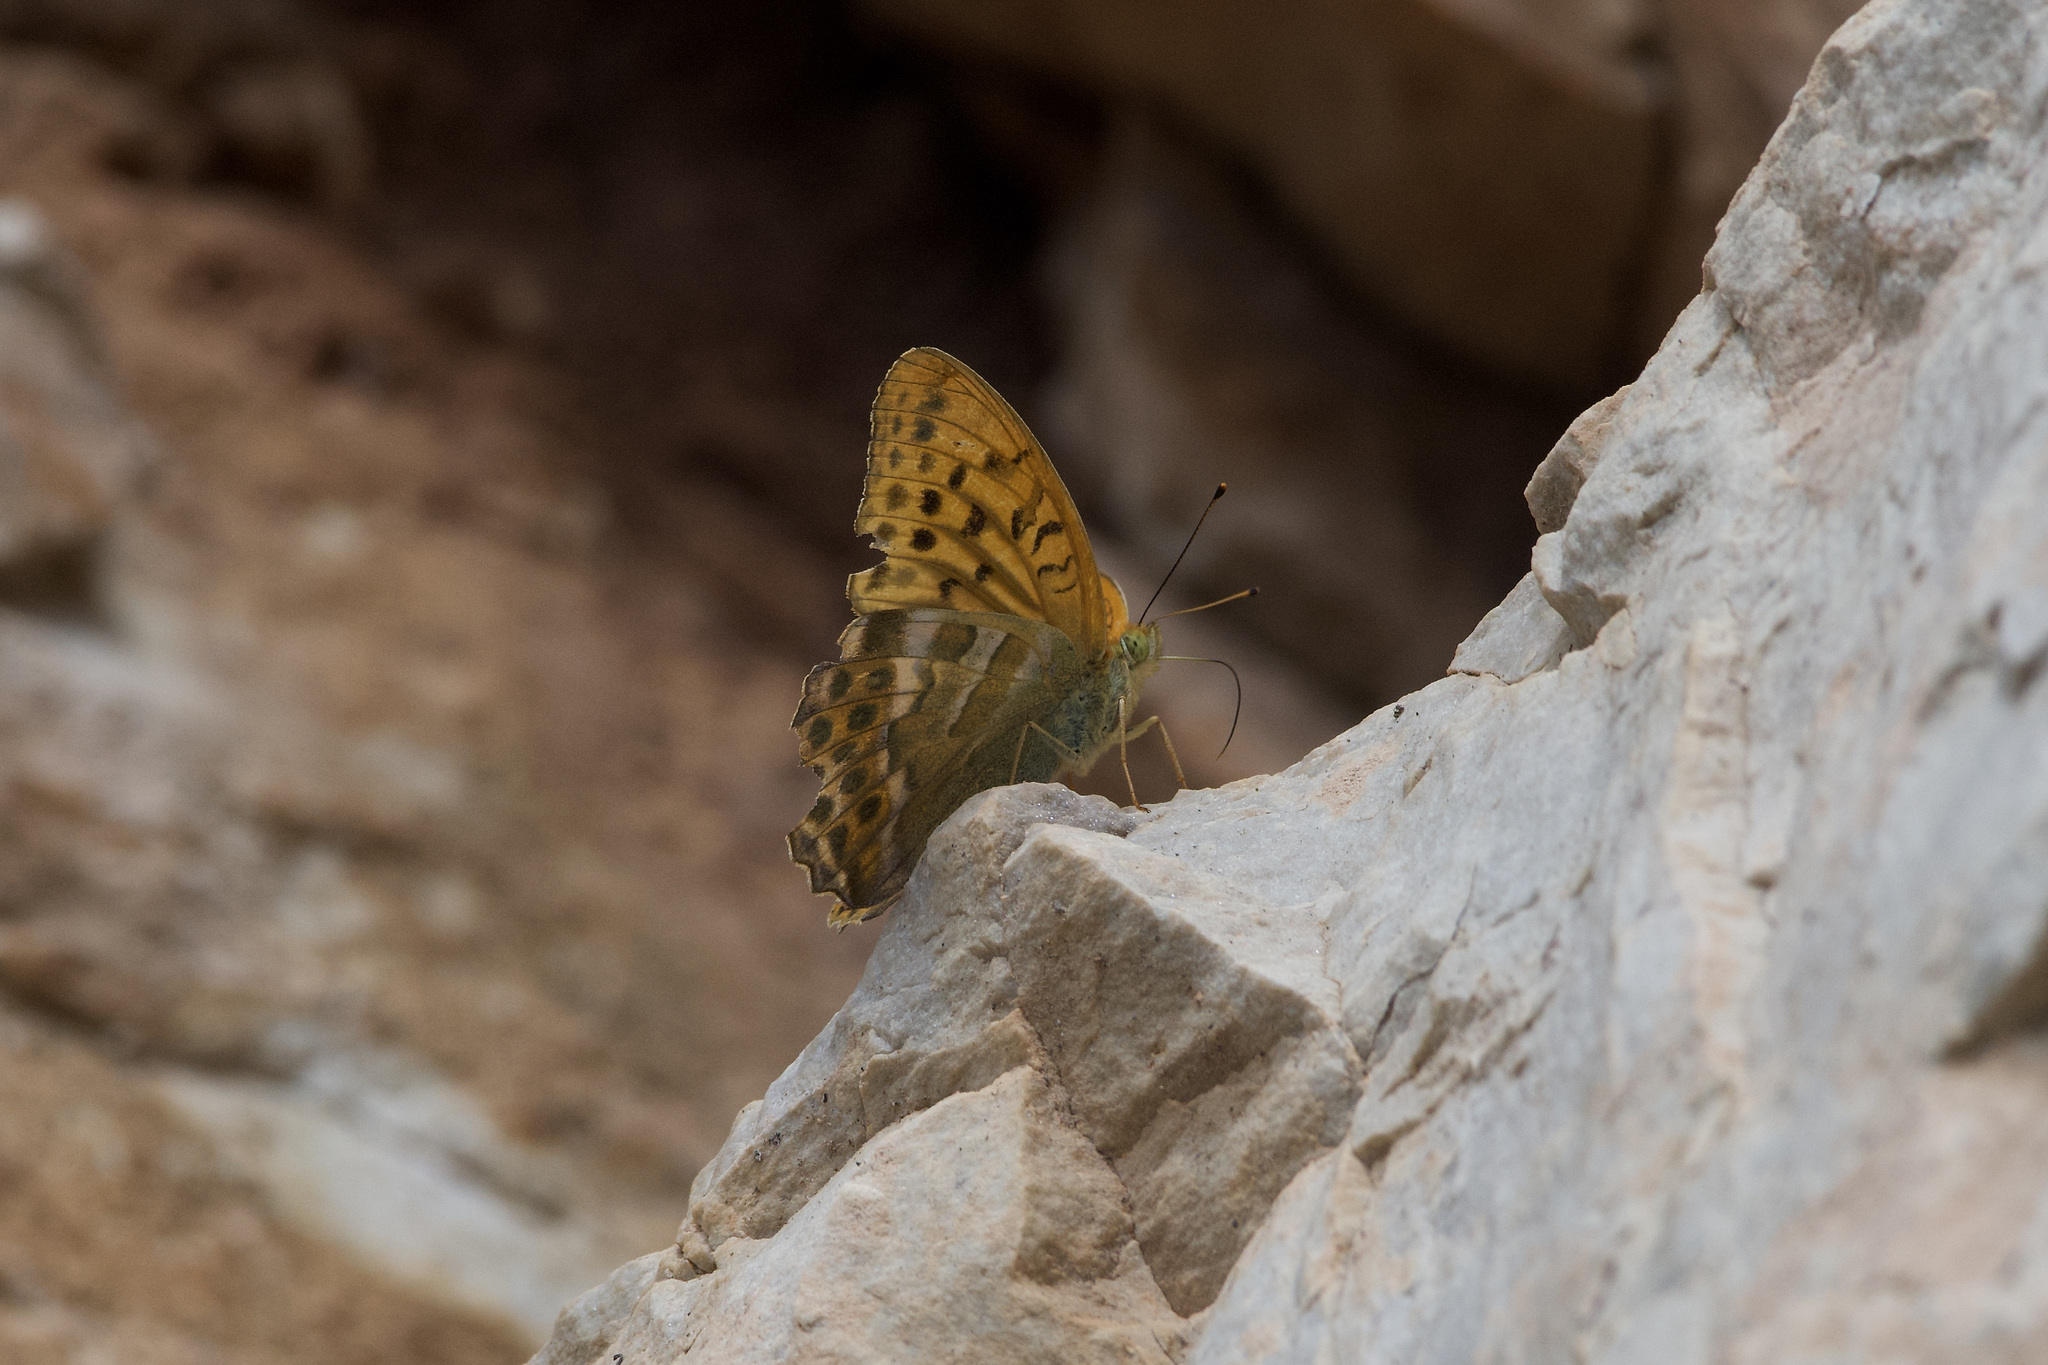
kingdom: Animalia
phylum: Arthropoda
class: Insecta
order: Lepidoptera
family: Nymphalidae
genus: Argynnis
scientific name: Argynnis paphia
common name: Silver-washed fritillary
